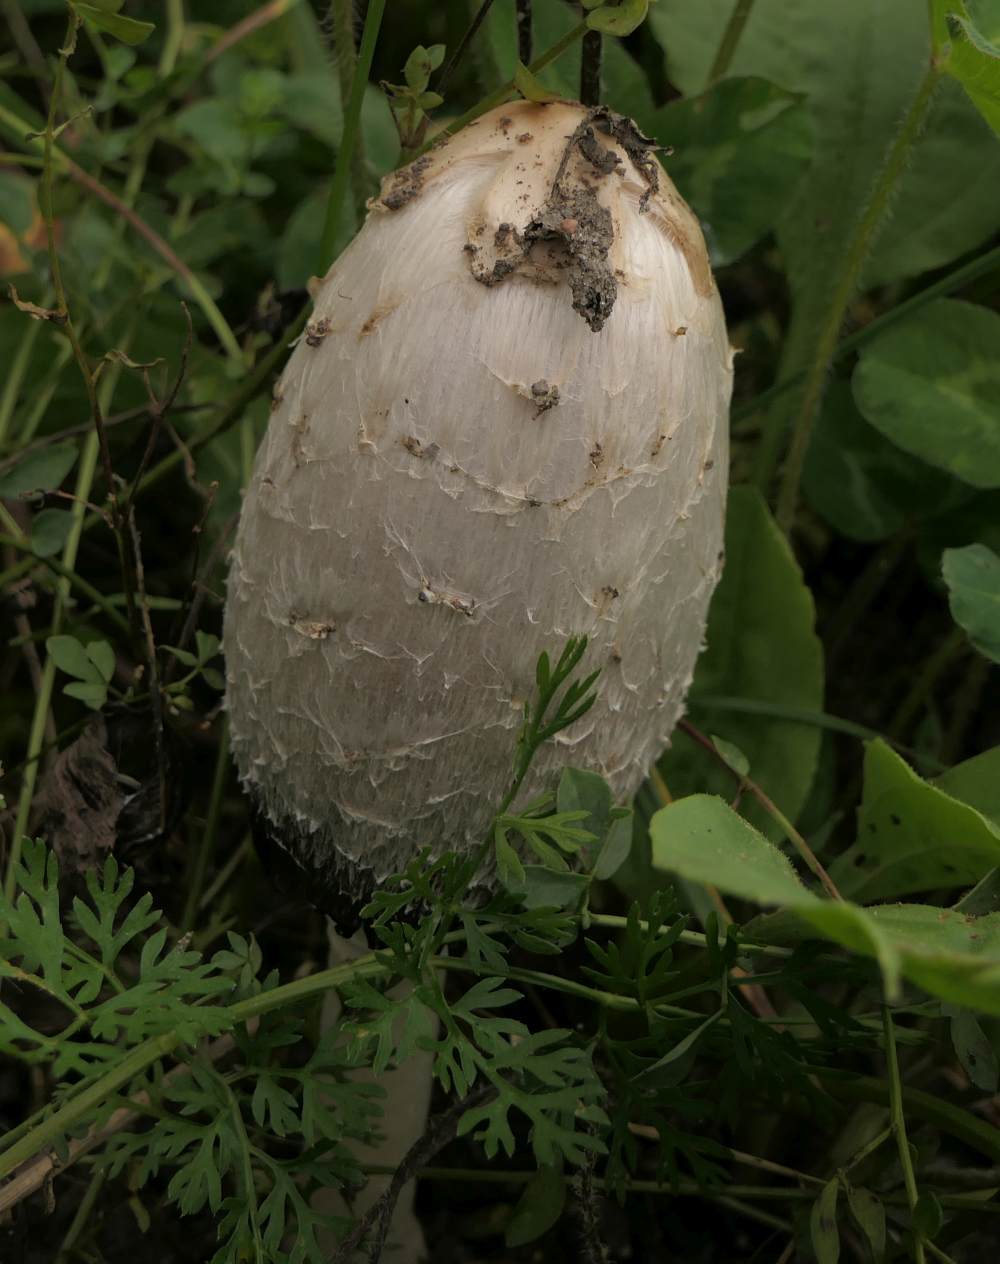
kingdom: Fungi
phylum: Basidiomycota
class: Agaricomycetes
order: Agaricales
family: Agaricaceae
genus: Coprinus
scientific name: Coprinus comatus
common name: Lawyer's wig
